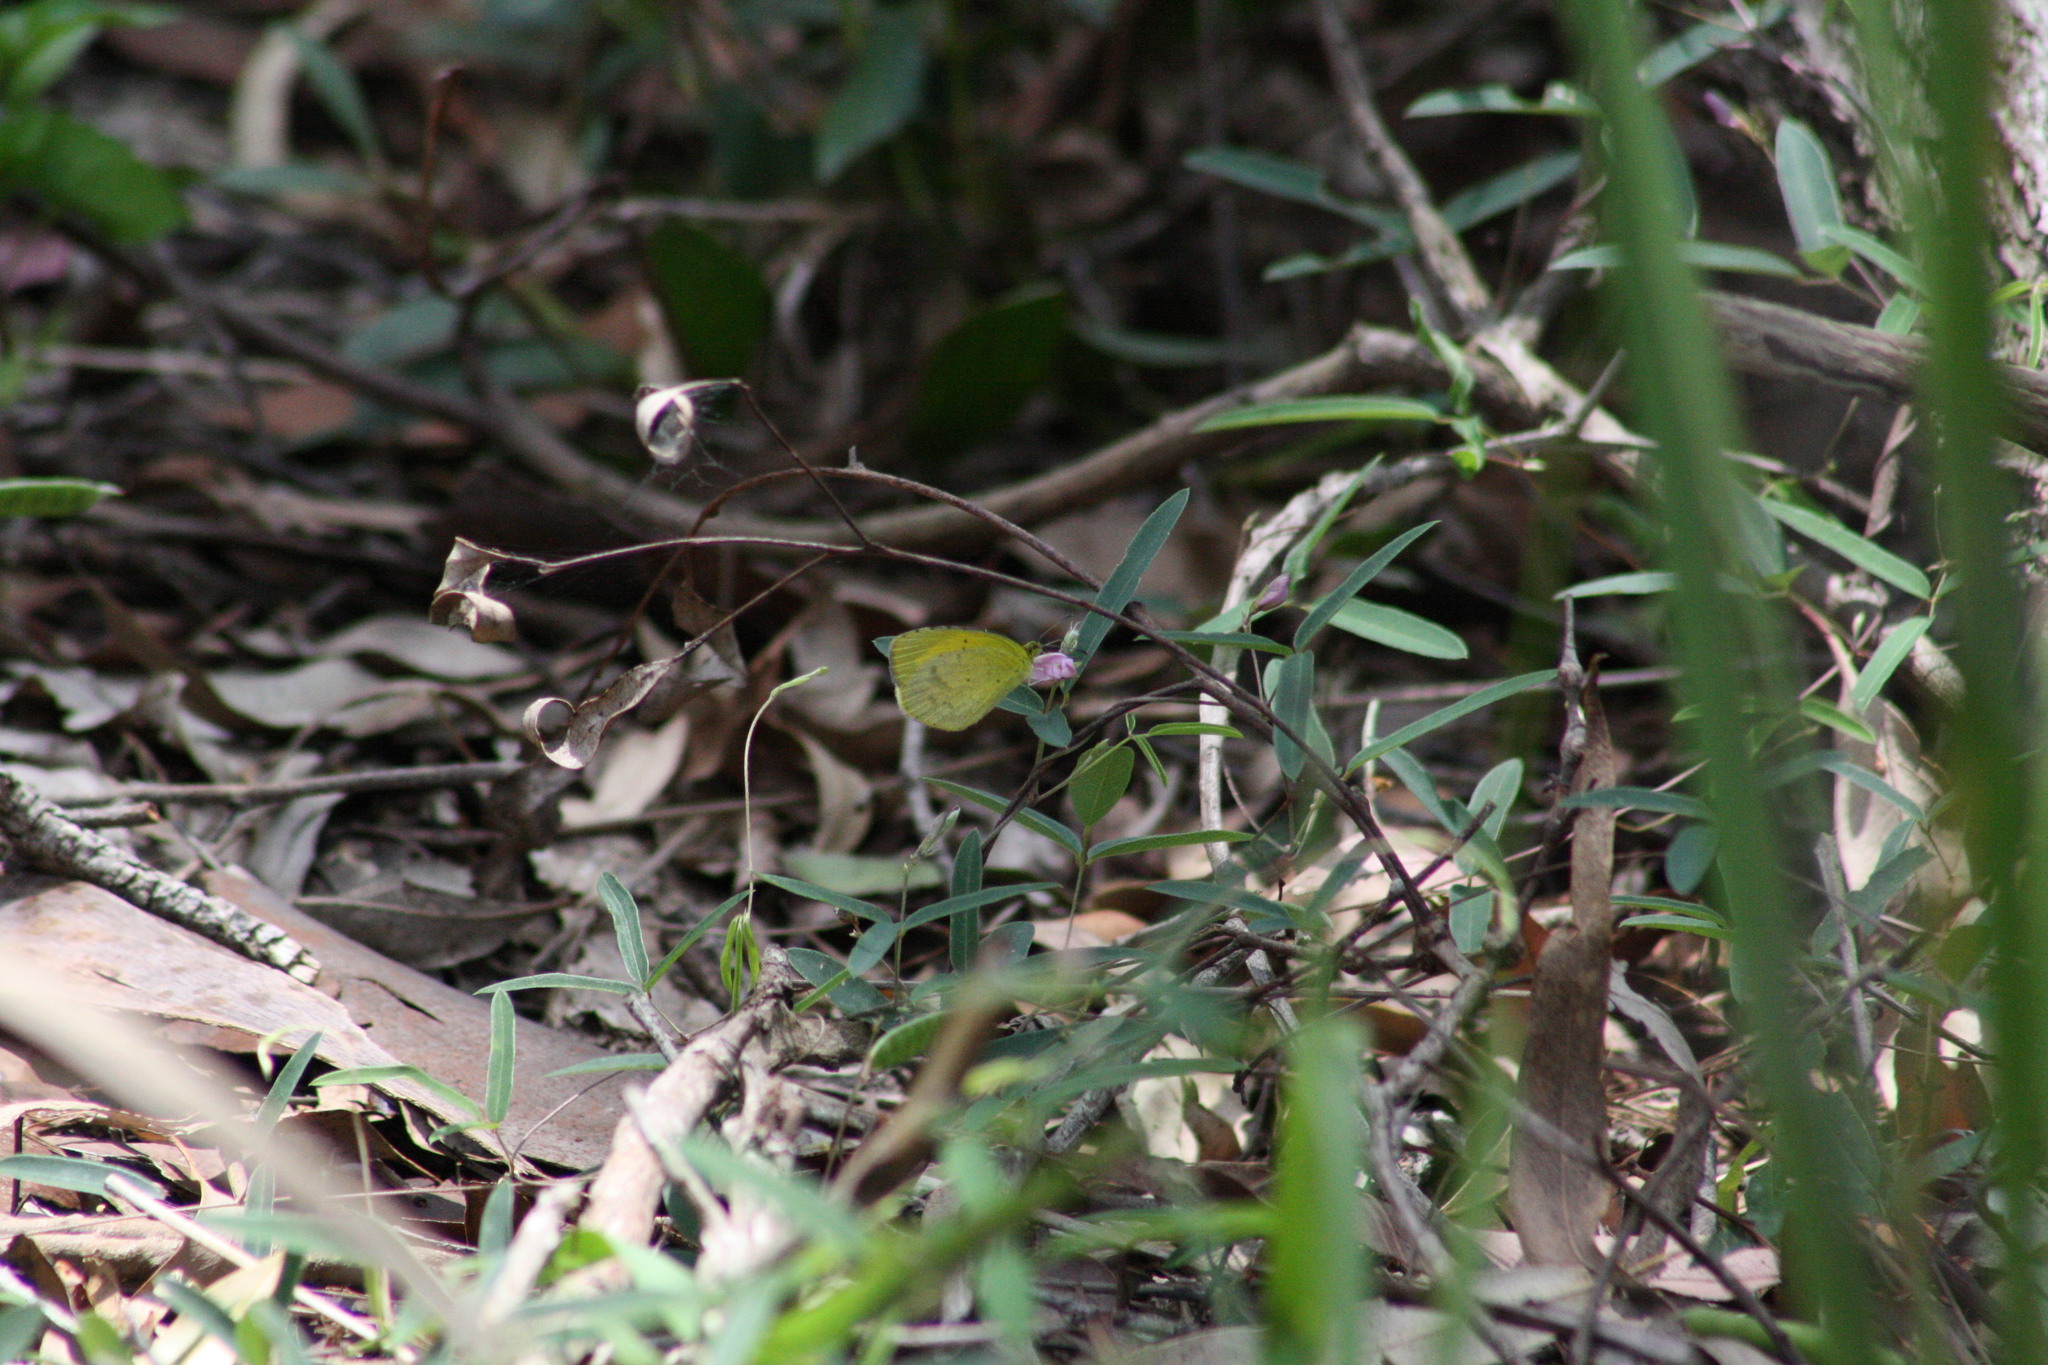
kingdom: Animalia
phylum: Arthropoda
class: Insecta
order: Lepidoptera
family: Pieridae
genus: Eurema
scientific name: Eurema smilax
